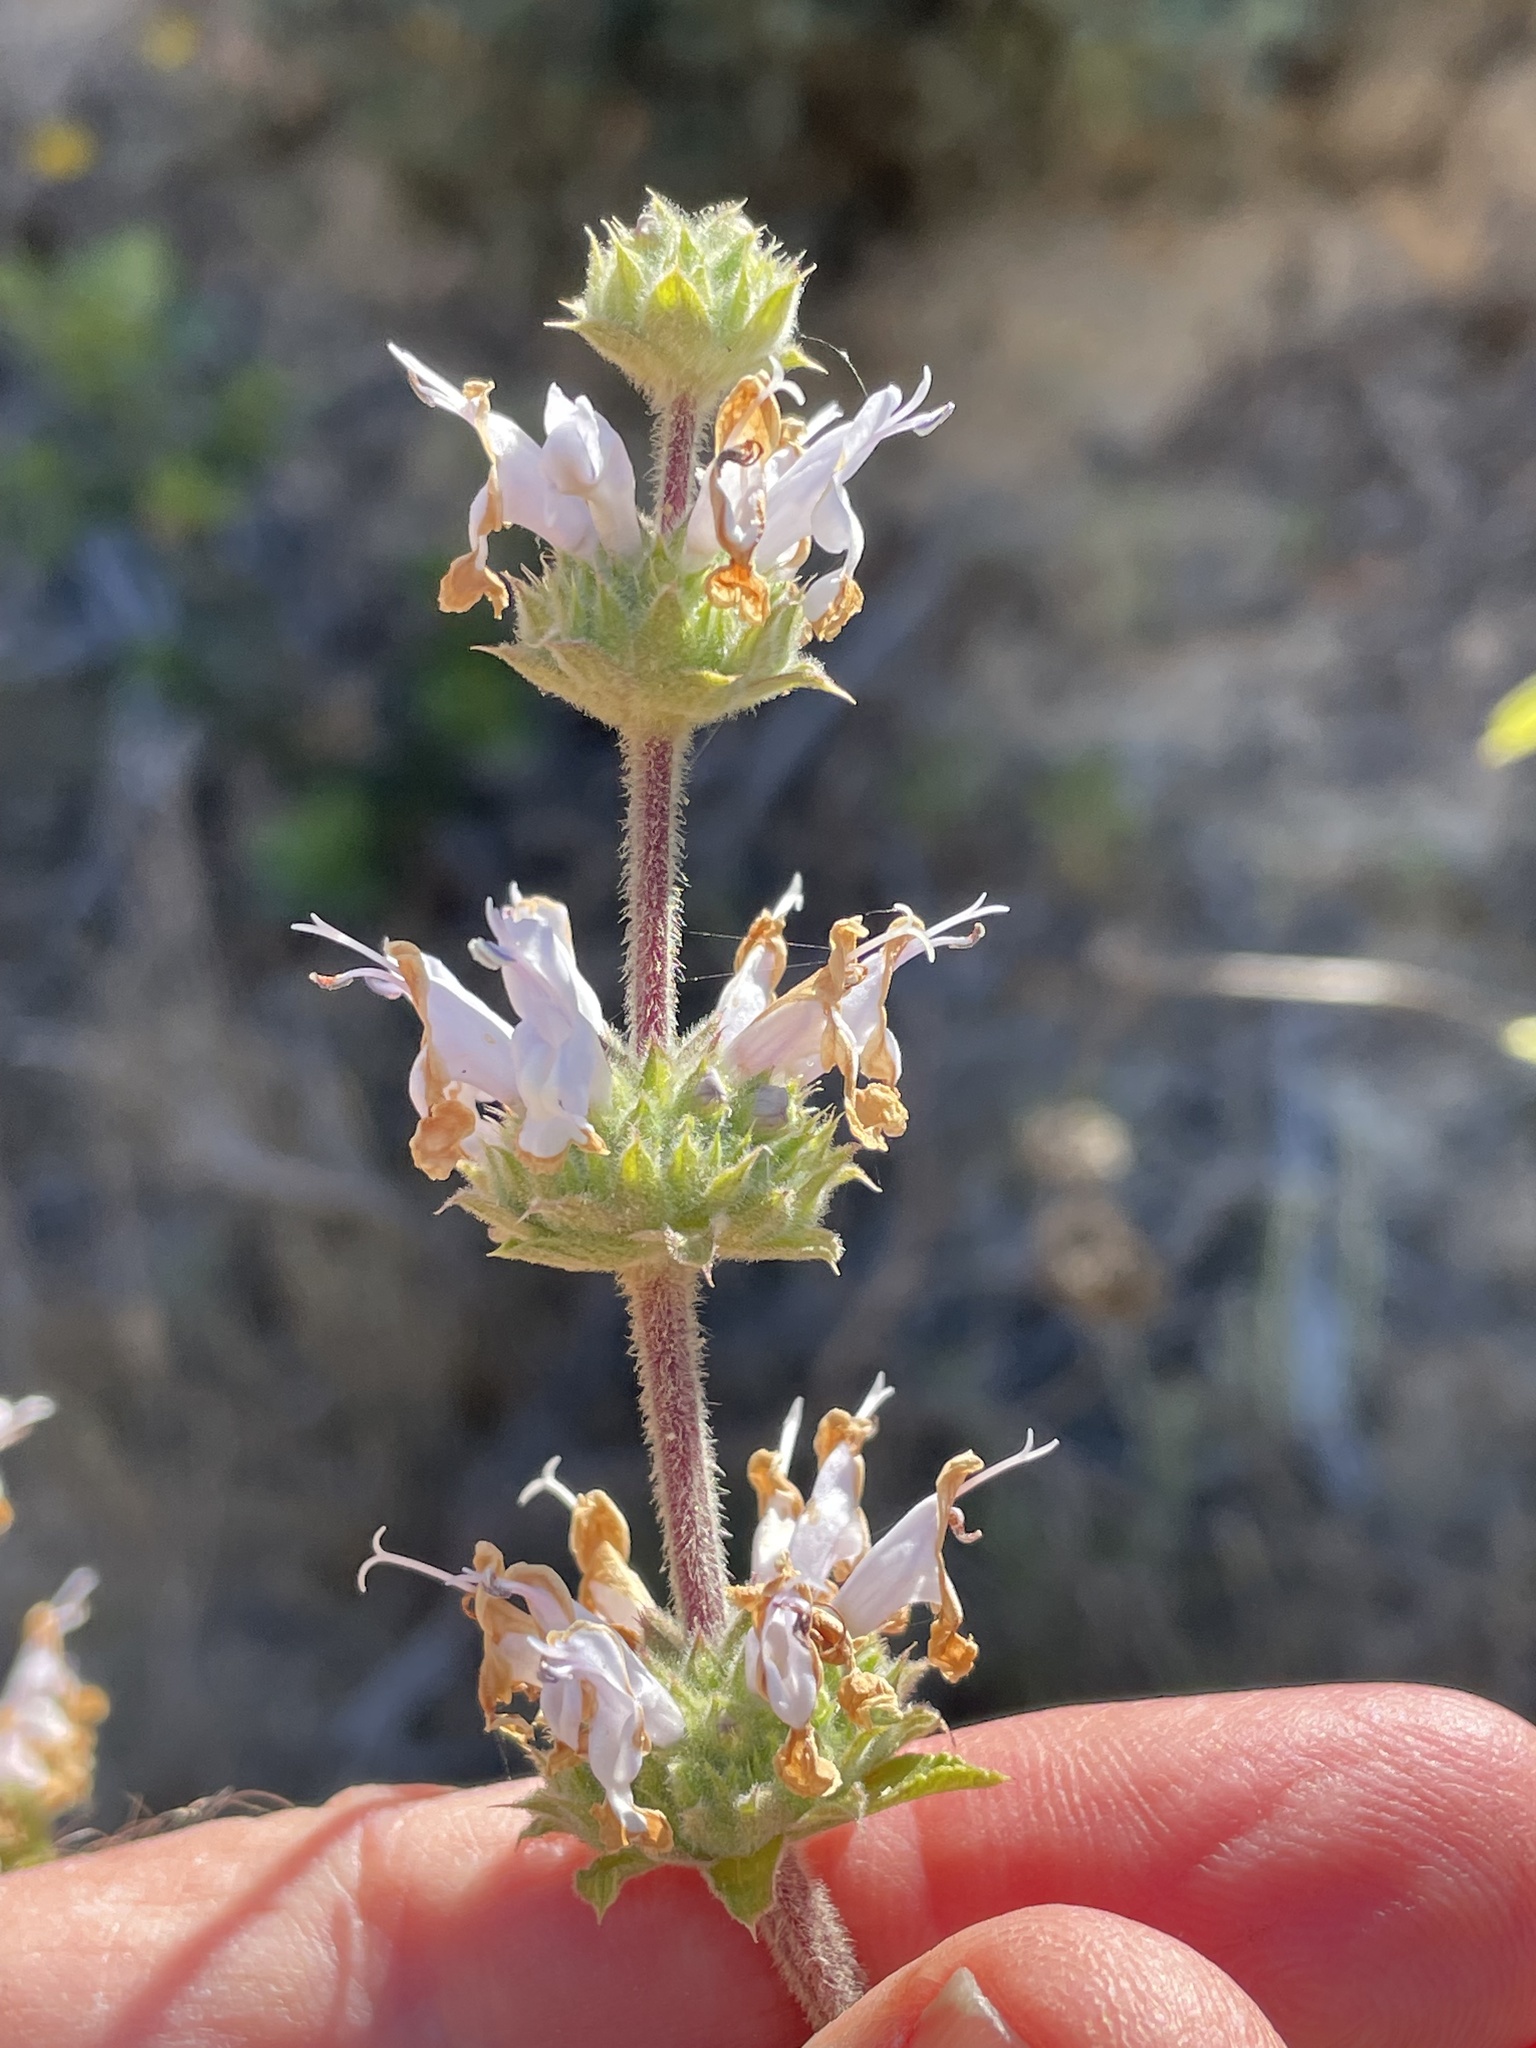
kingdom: Plantae
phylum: Tracheophyta
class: Magnoliopsida
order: Lamiales
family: Lamiaceae
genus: Salvia
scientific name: Salvia mellifera
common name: Black sage
